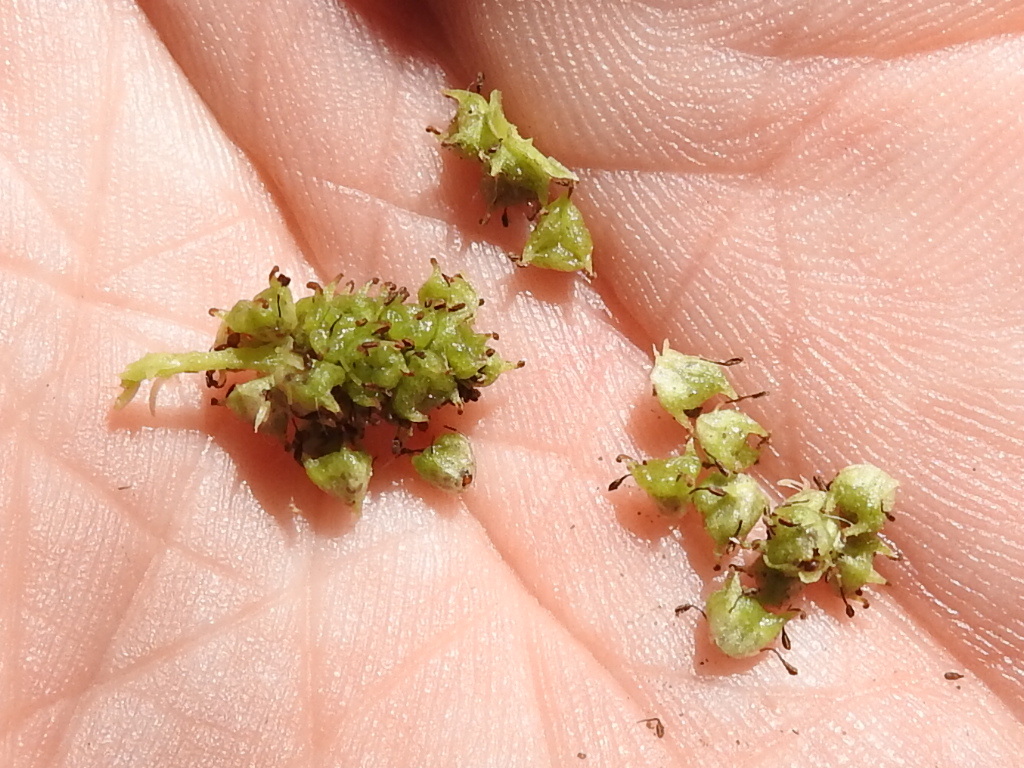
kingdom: Plantae
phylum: Tracheophyta
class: Magnoliopsida
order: Piperales
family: Saururaceae
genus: Houttuynia
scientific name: Houttuynia cordata
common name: Chameleon
